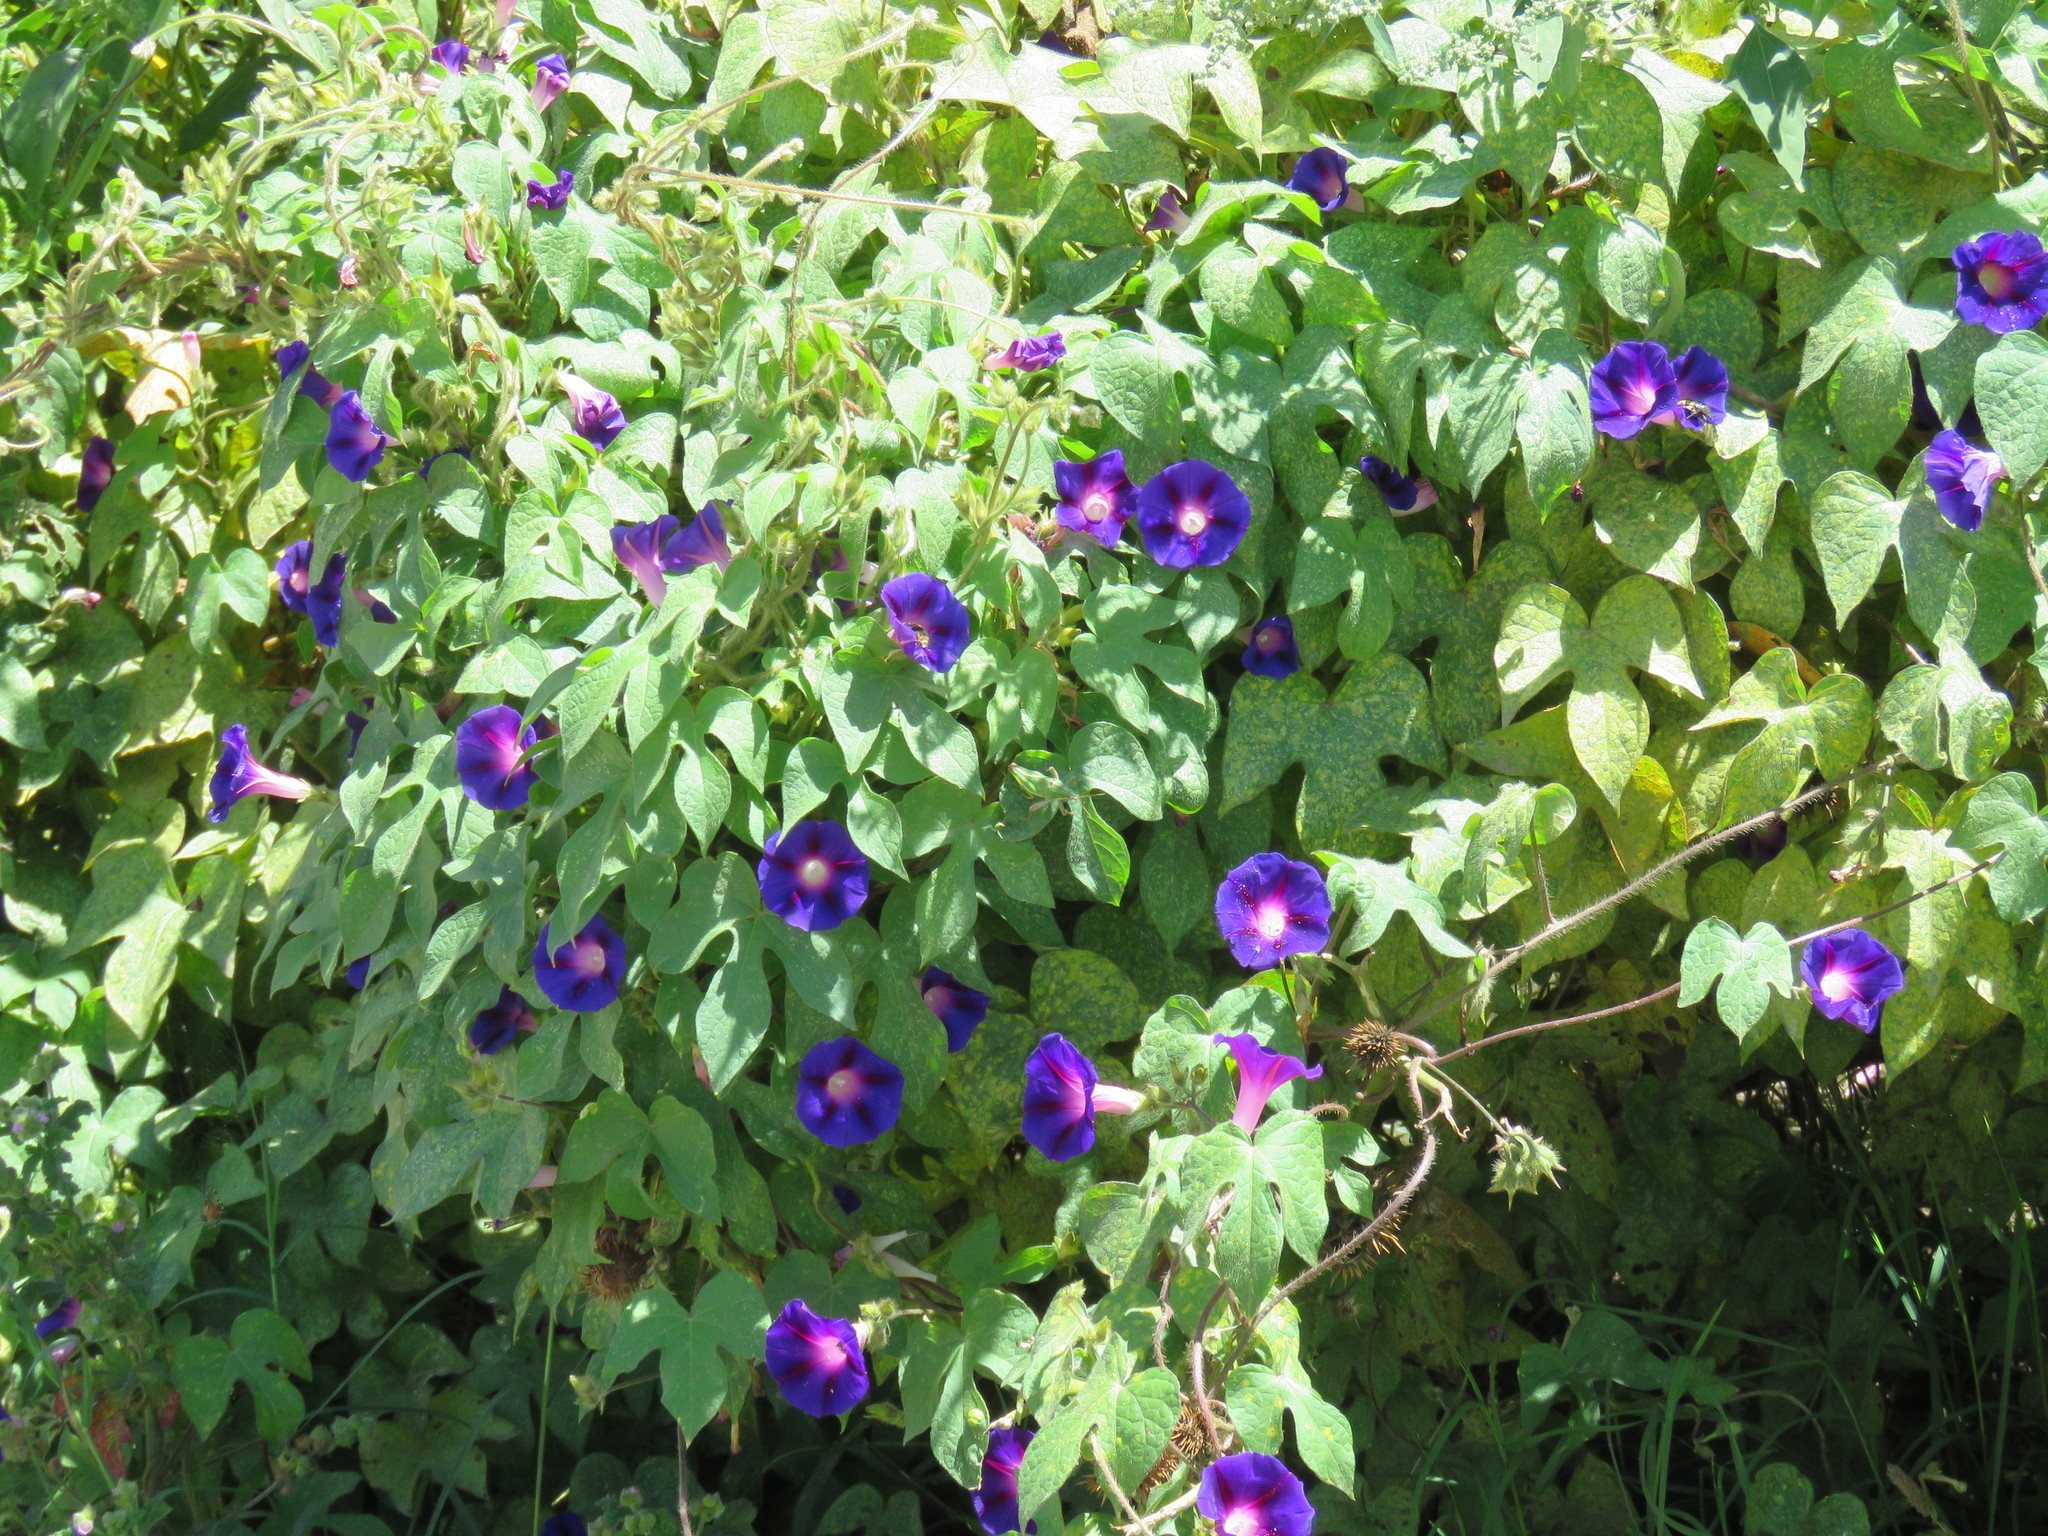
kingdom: Plantae
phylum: Tracheophyta
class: Magnoliopsida
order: Solanales
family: Convolvulaceae
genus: Ipomoea
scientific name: Ipomoea purpurea
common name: Common morning-glory
